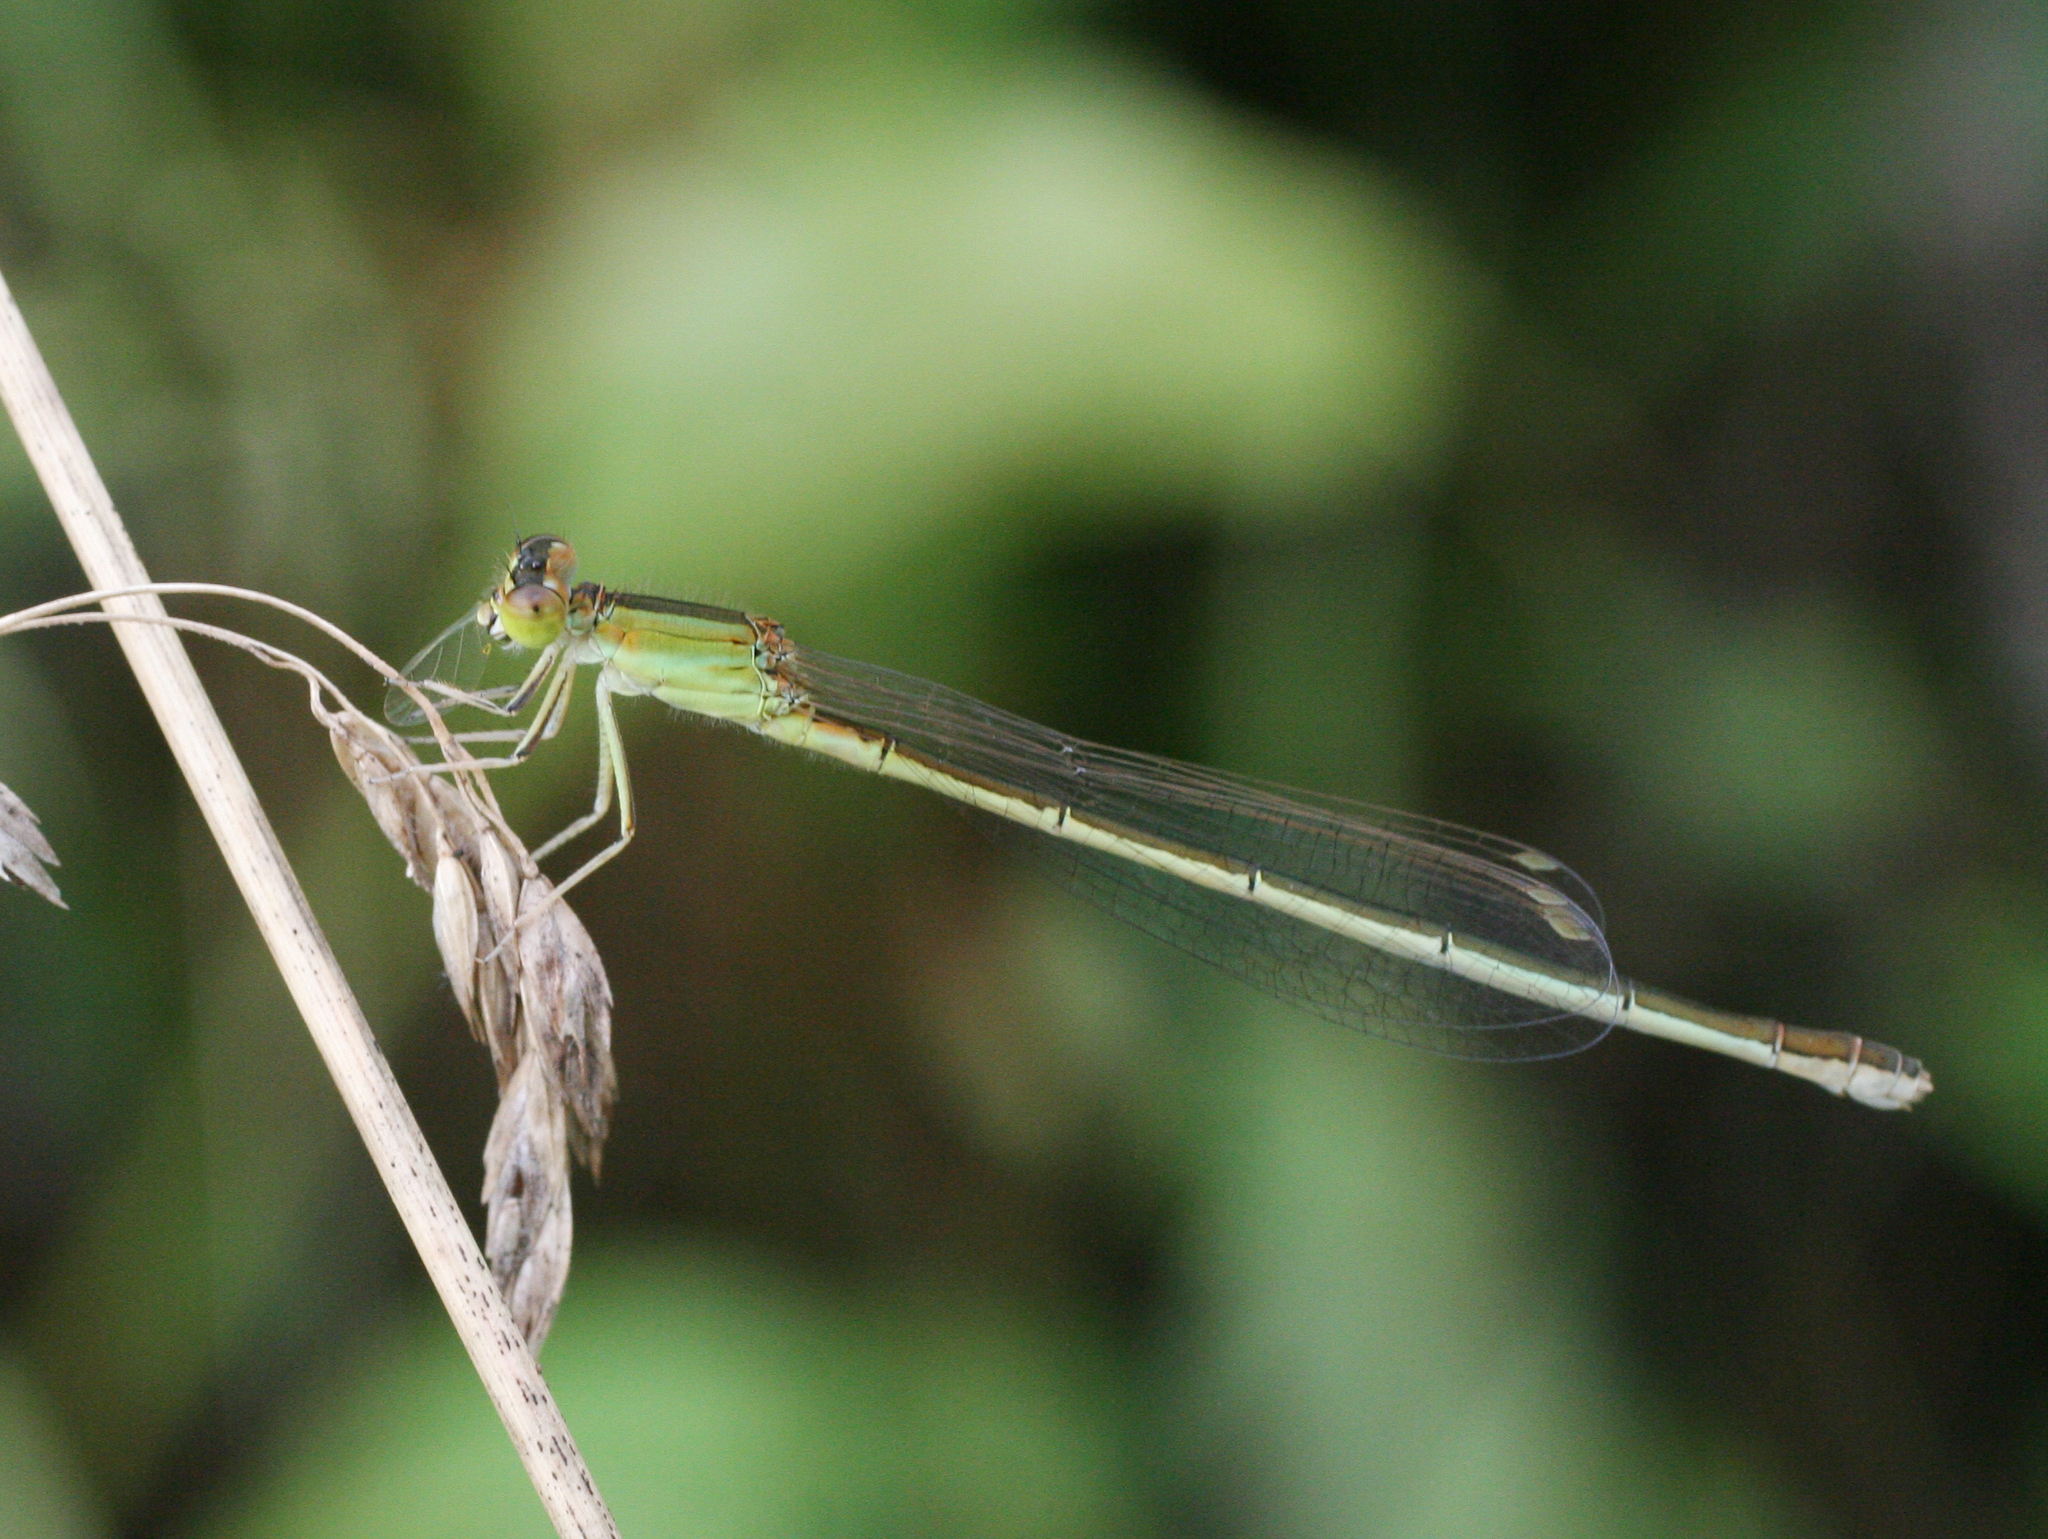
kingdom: Animalia
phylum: Arthropoda
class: Insecta
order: Odonata
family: Coenagrionidae
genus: Ischnura
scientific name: Ischnura asiatica
